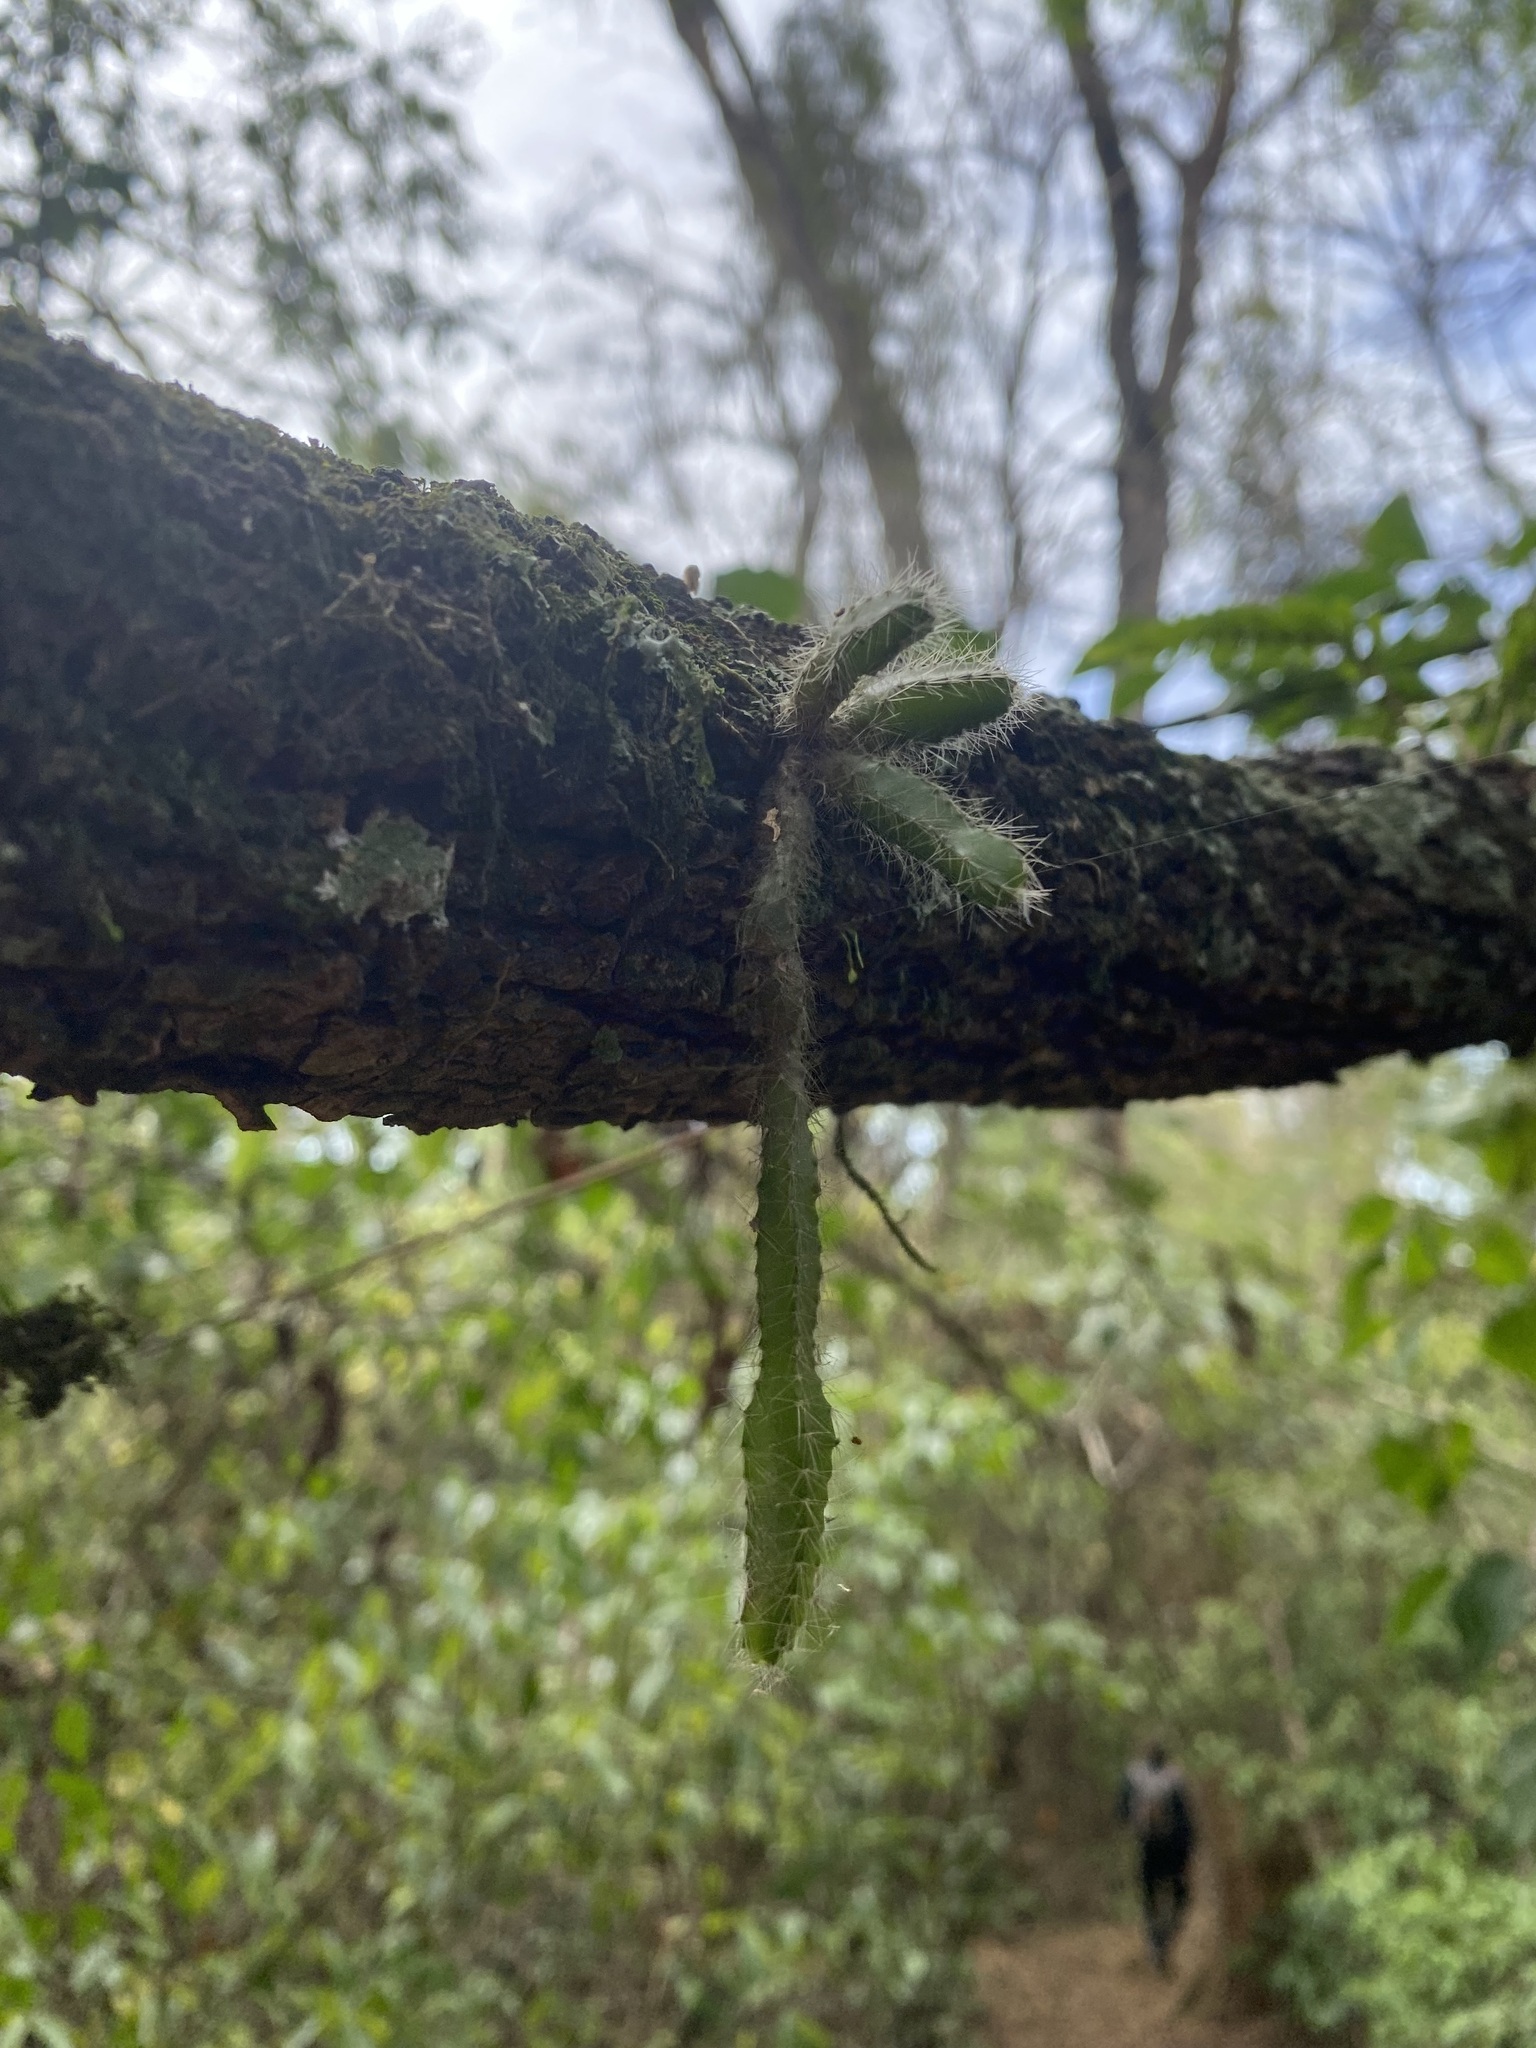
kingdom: Plantae
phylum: Tracheophyta
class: Magnoliopsida
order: Caryophyllales
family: Cactaceae
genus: Pfeiffera
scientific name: Pfeiffera ianthothele
